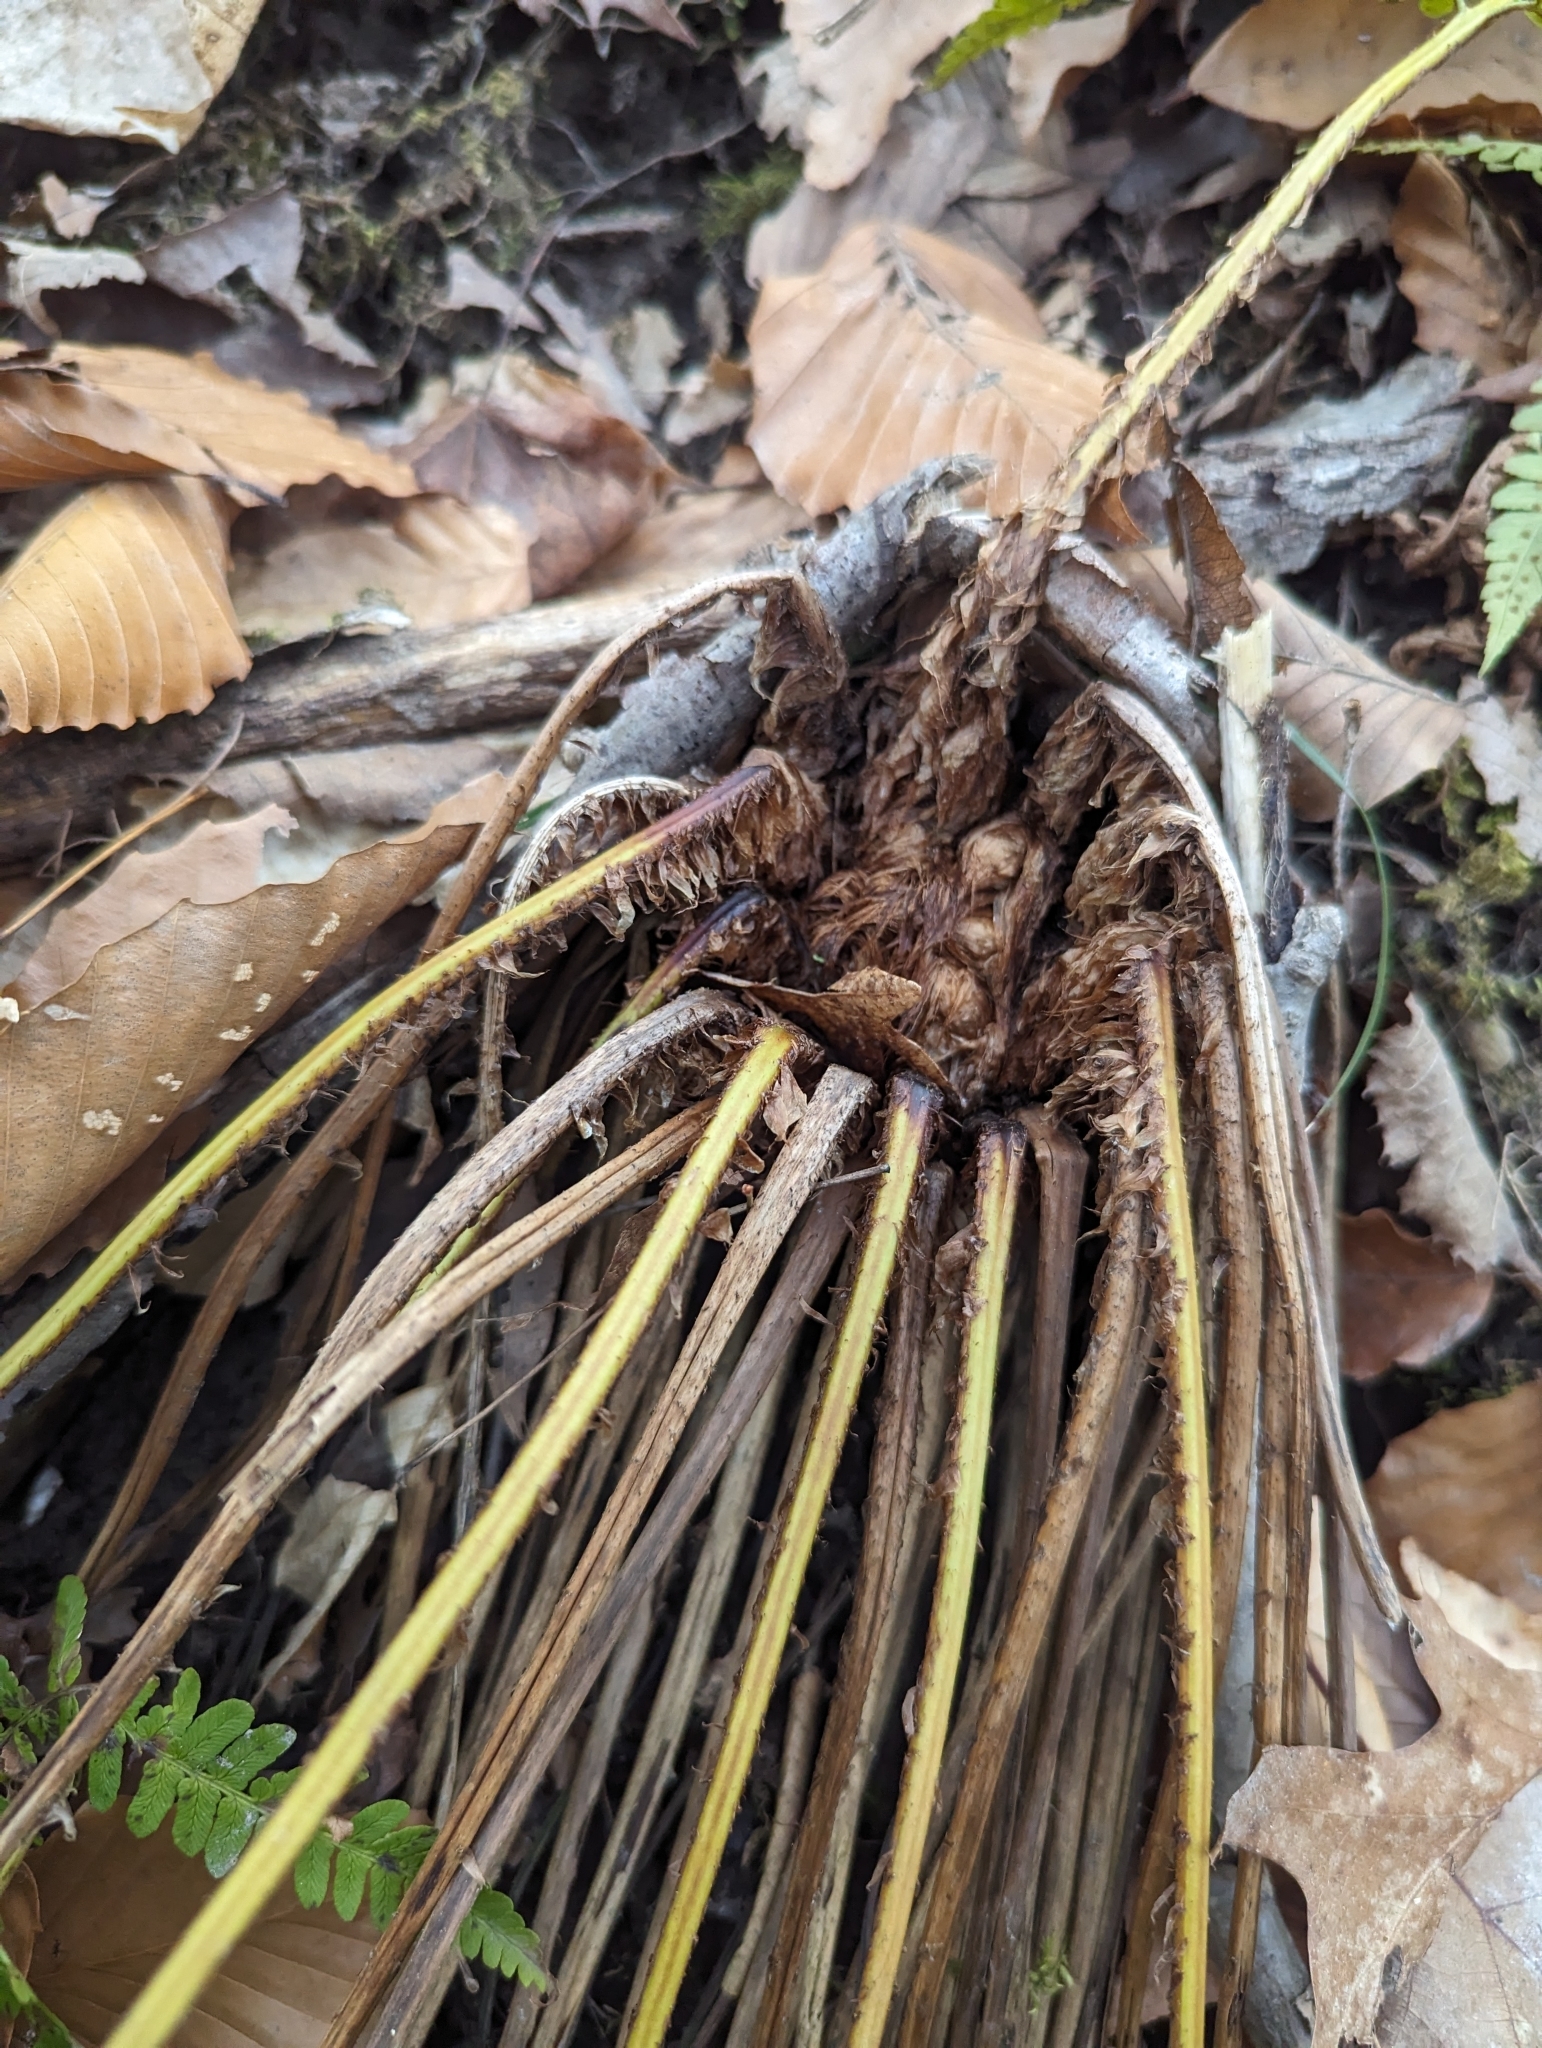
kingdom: Plantae
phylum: Tracheophyta
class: Polypodiopsida
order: Polypodiales
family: Dryopteridaceae
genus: Dryopteris
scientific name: Dryopteris marginalis
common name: Marginal wood fern
